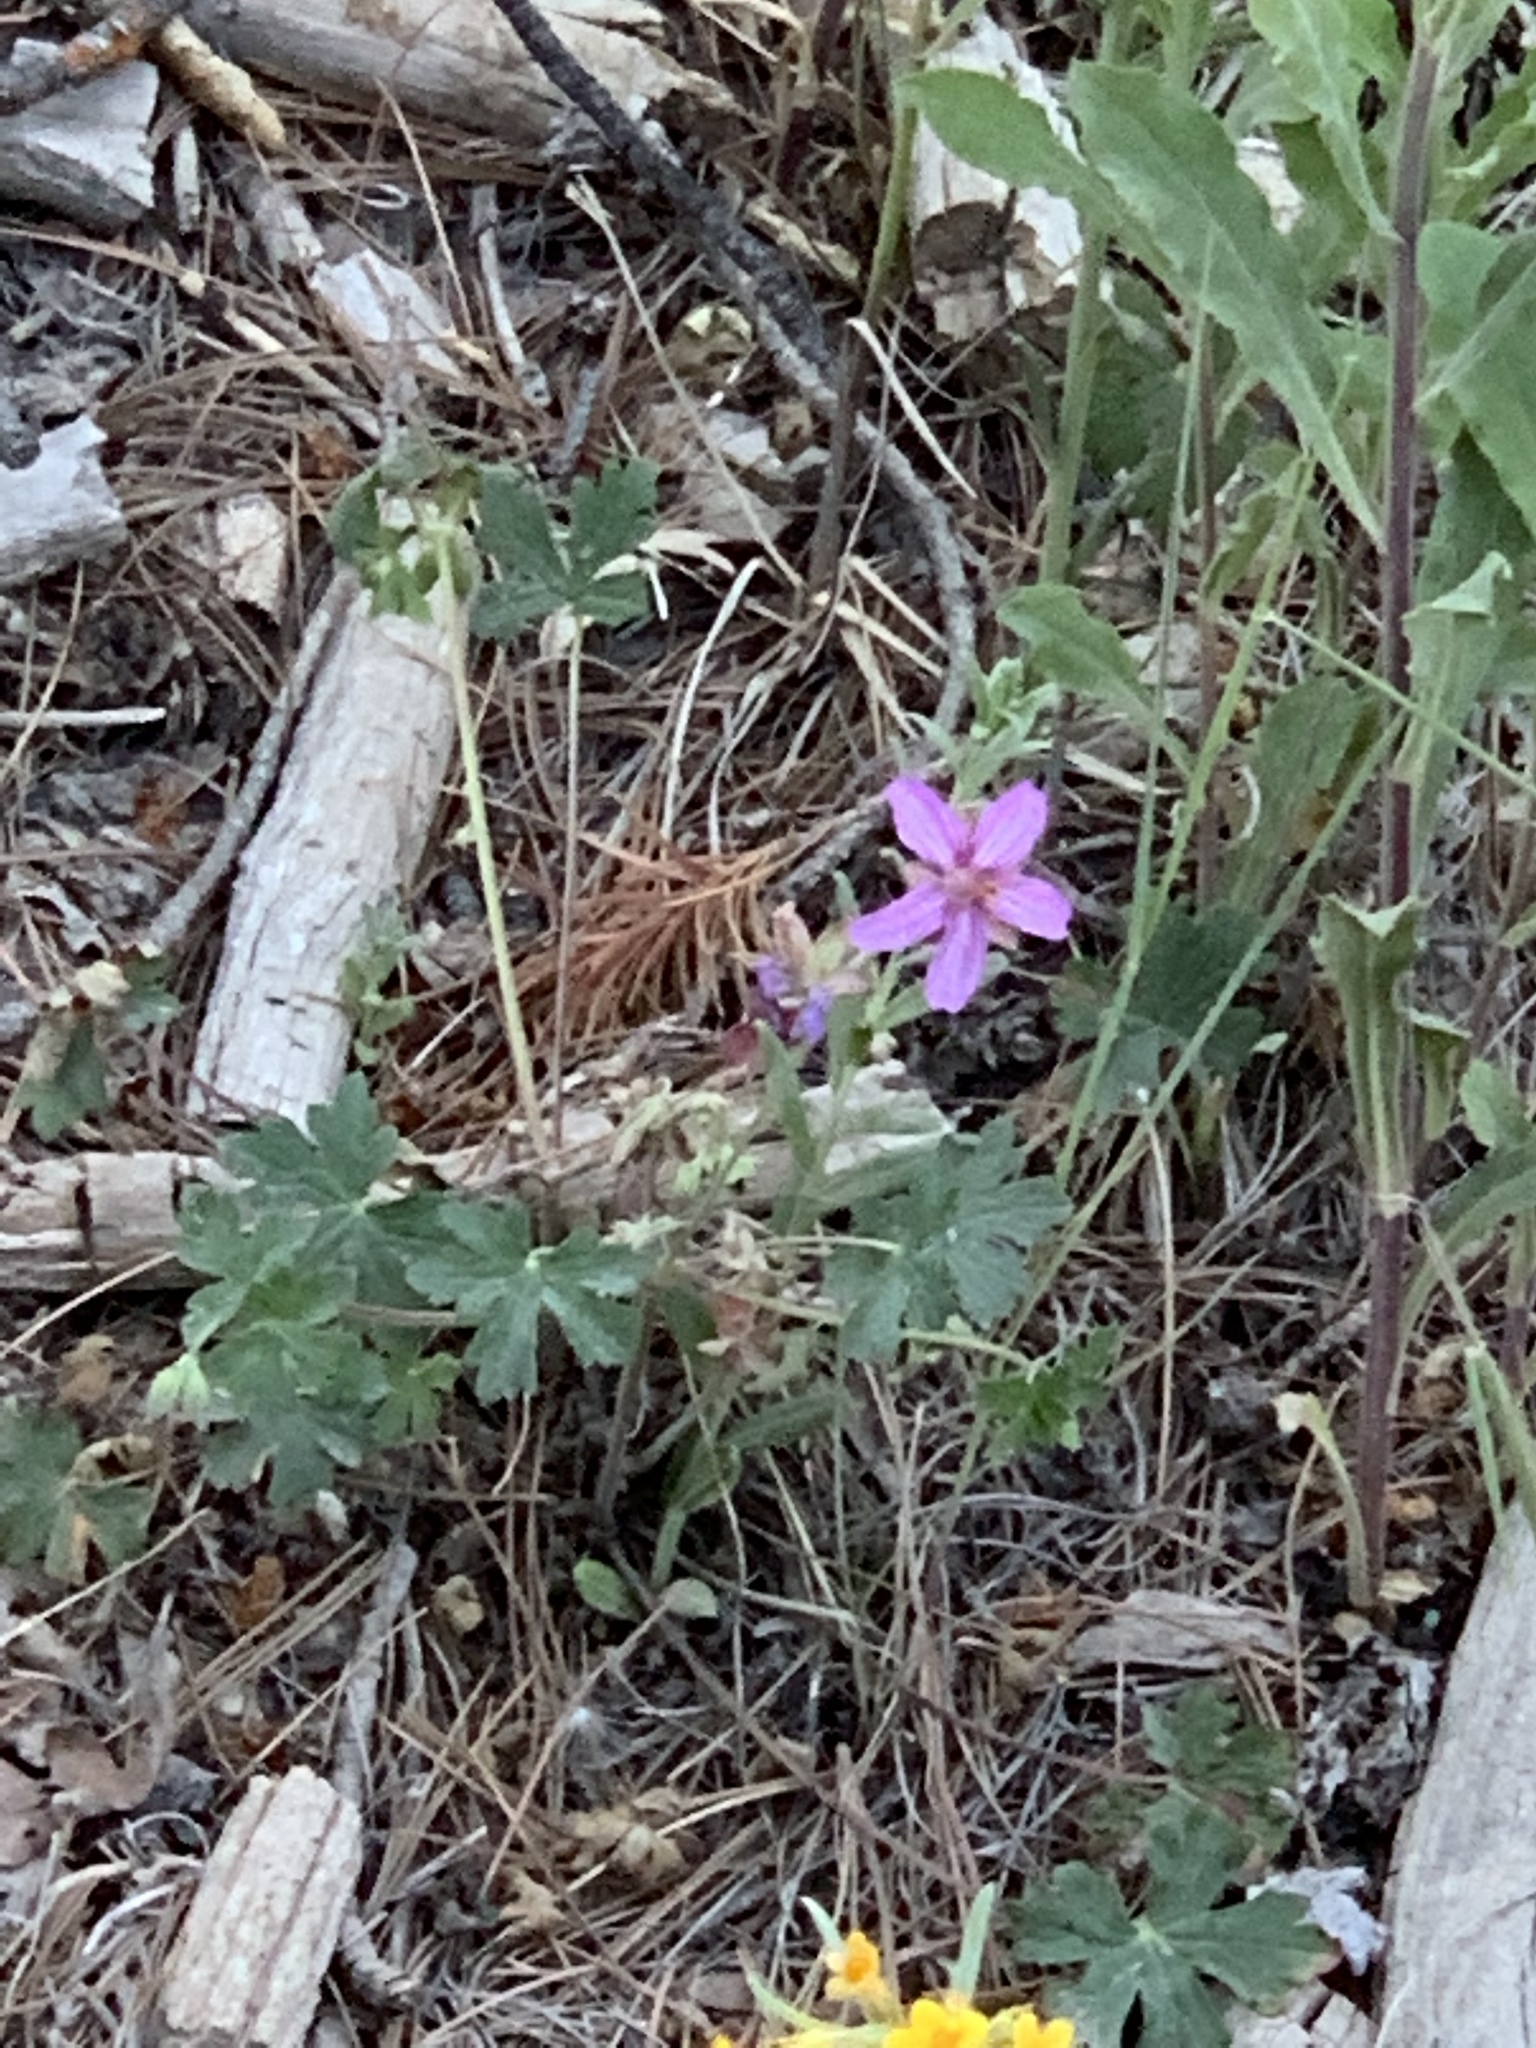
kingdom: Plantae
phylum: Tracheophyta
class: Magnoliopsida
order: Geraniales
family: Geraniaceae
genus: Geranium
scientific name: Geranium caespitosum
